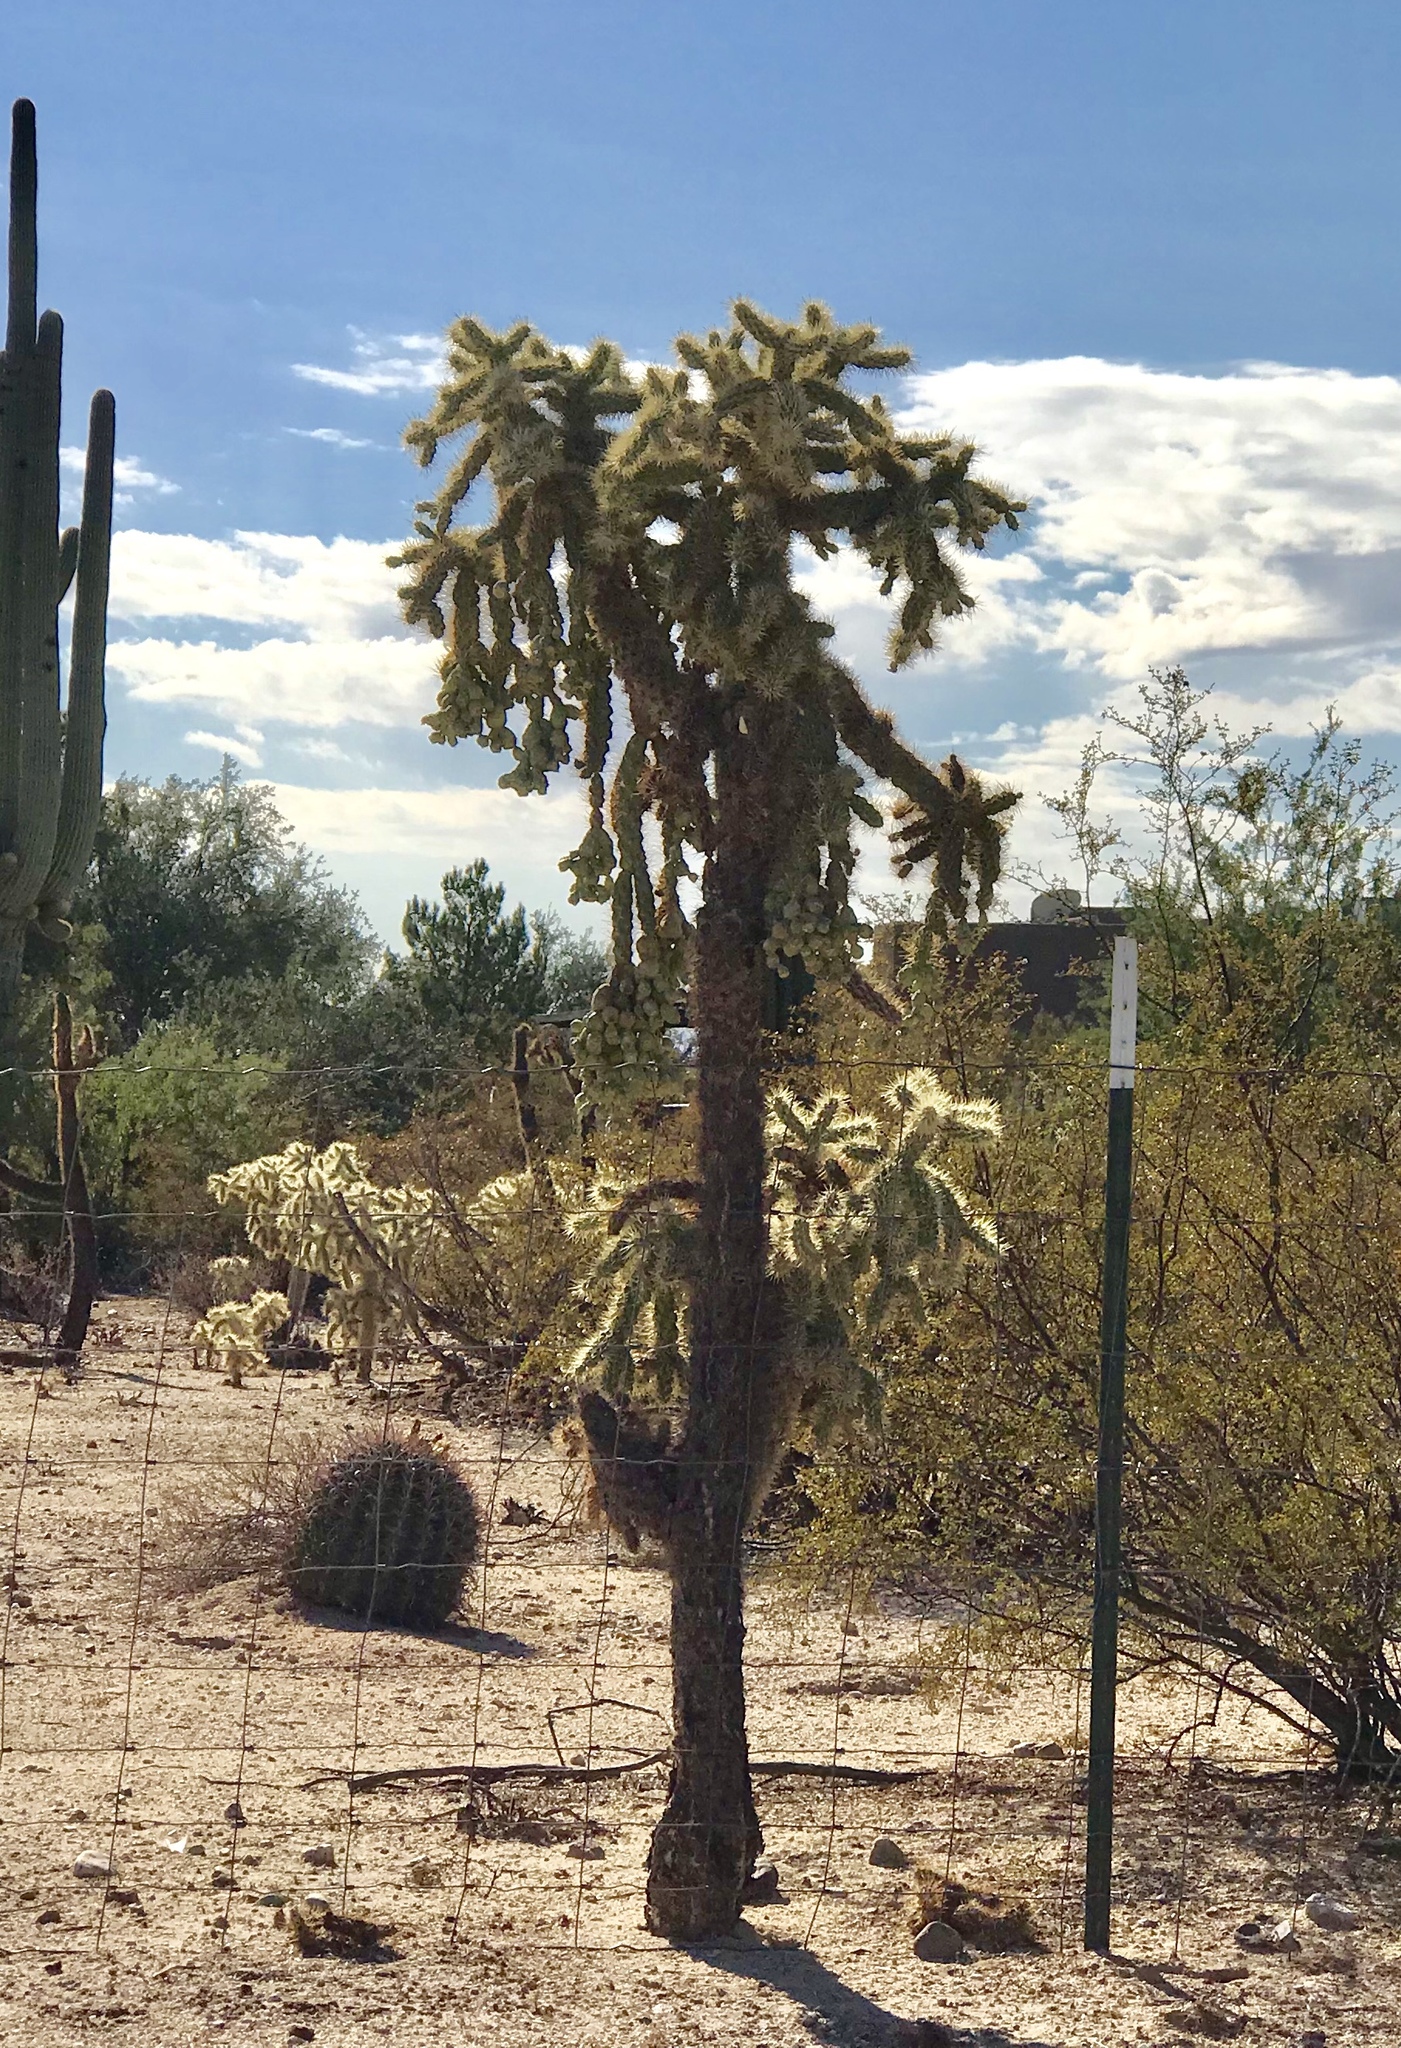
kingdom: Plantae
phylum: Tracheophyta
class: Magnoliopsida
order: Caryophyllales
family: Cactaceae
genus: Cylindropuntia
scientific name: Cylindropuntia fulgida
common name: Jumping cholla
